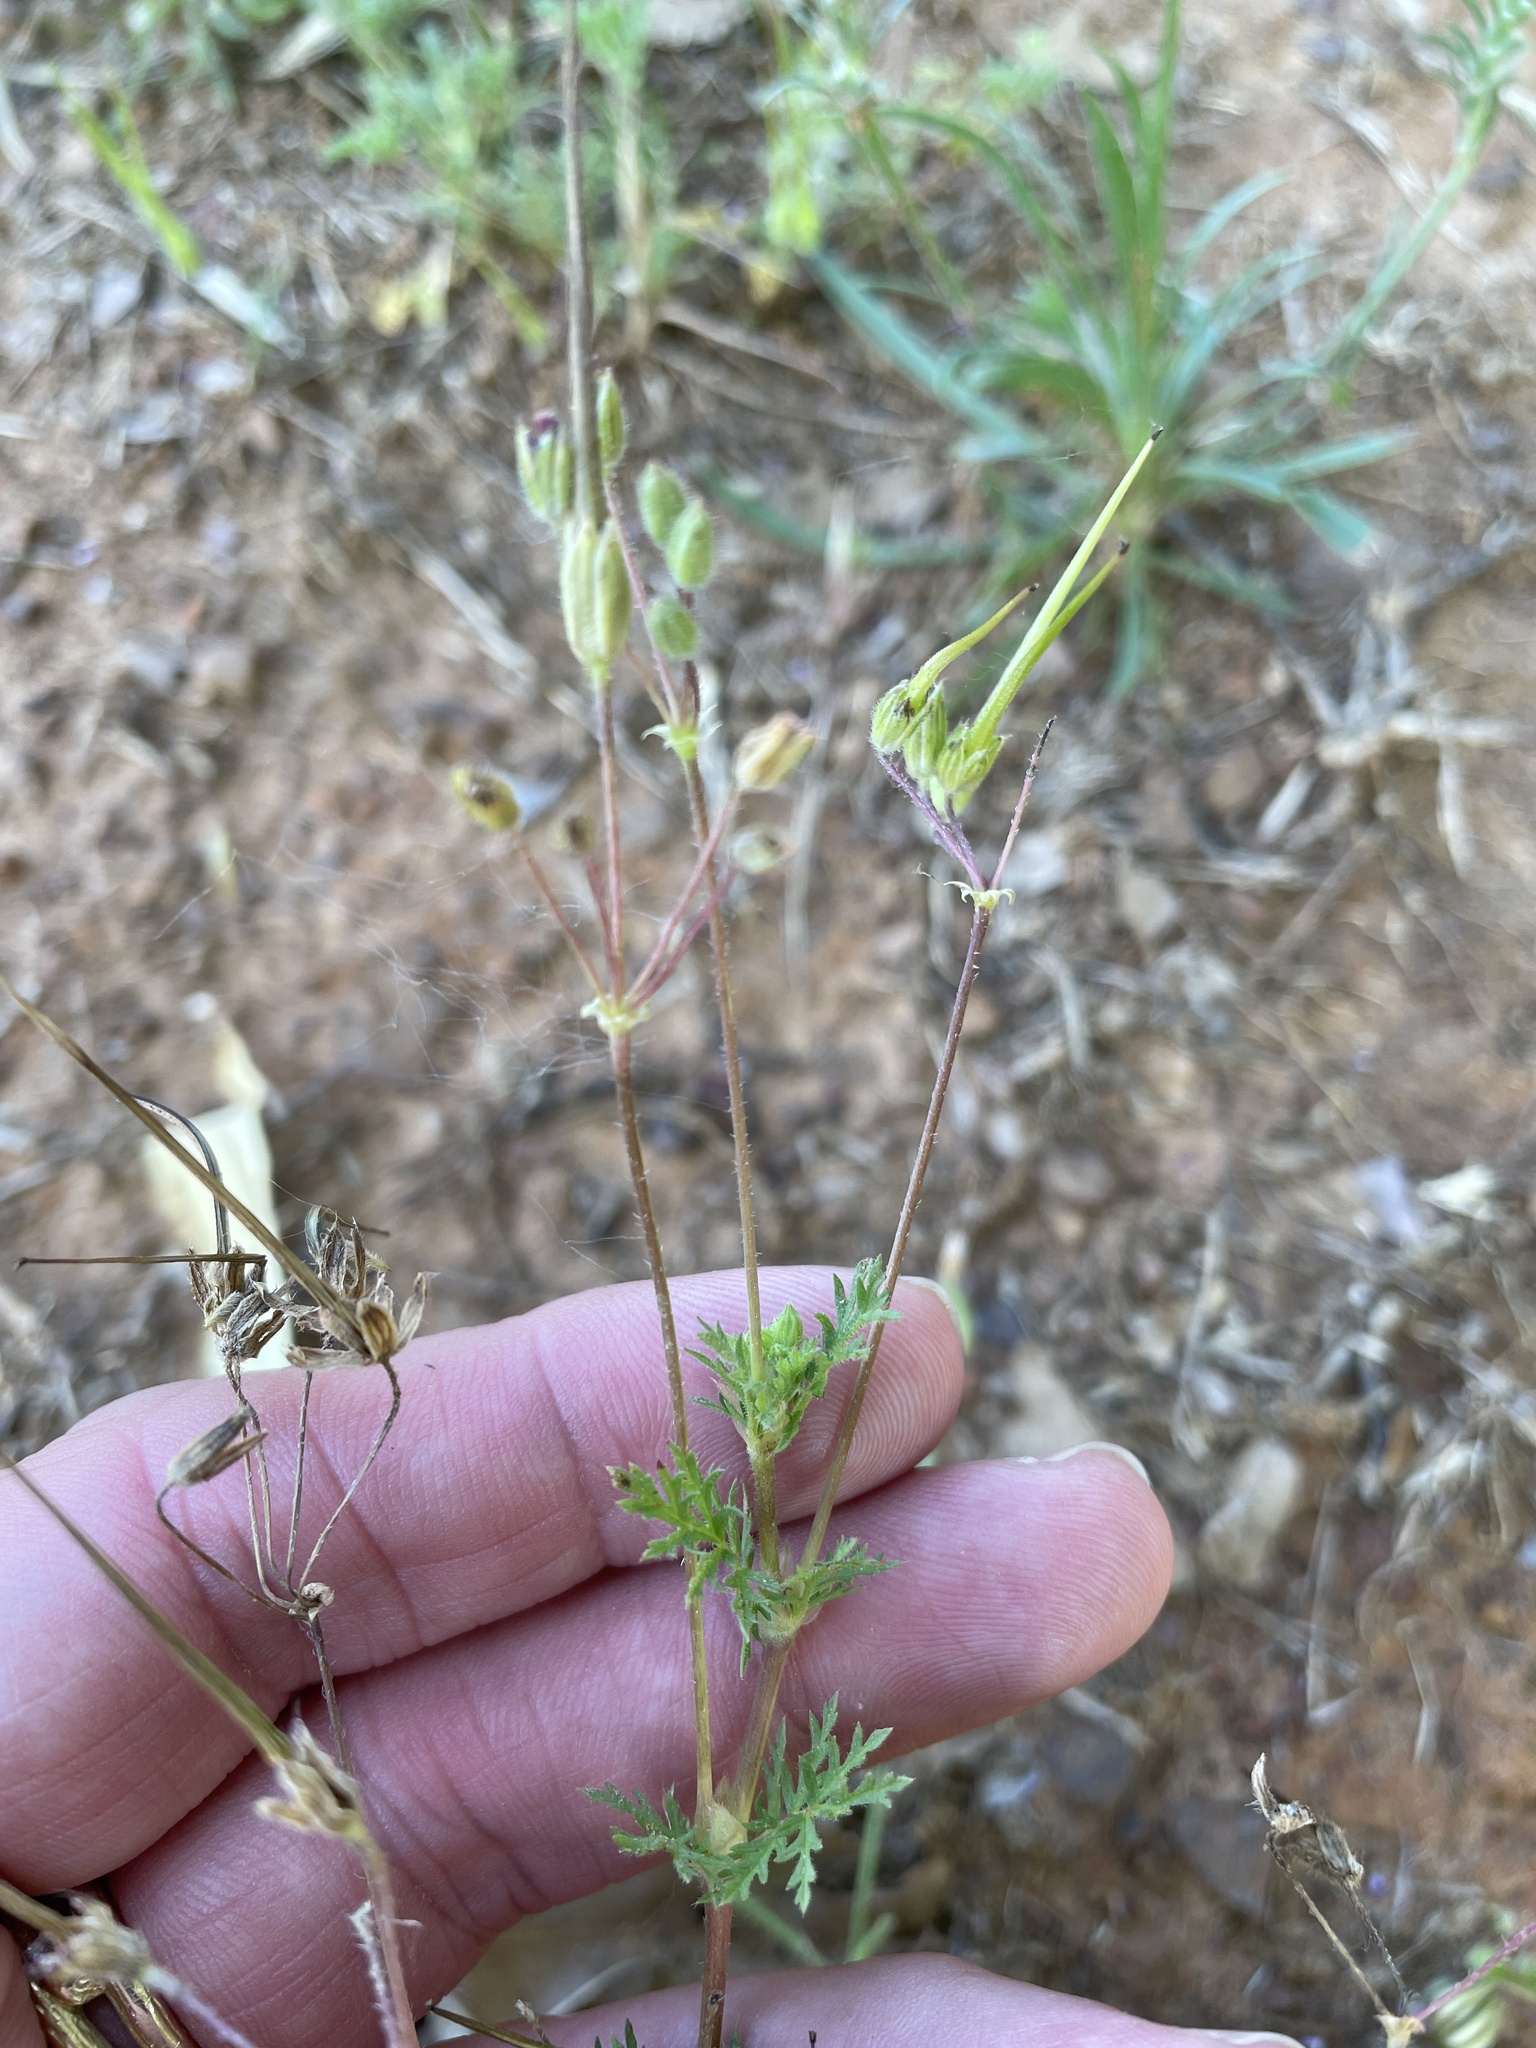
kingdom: Plantae
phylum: Tracheophyta
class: Magnoliopsida
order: Geraniales
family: Geraniaceae
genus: Erodium
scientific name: Erodium cicutarium
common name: Common stork's-bill
